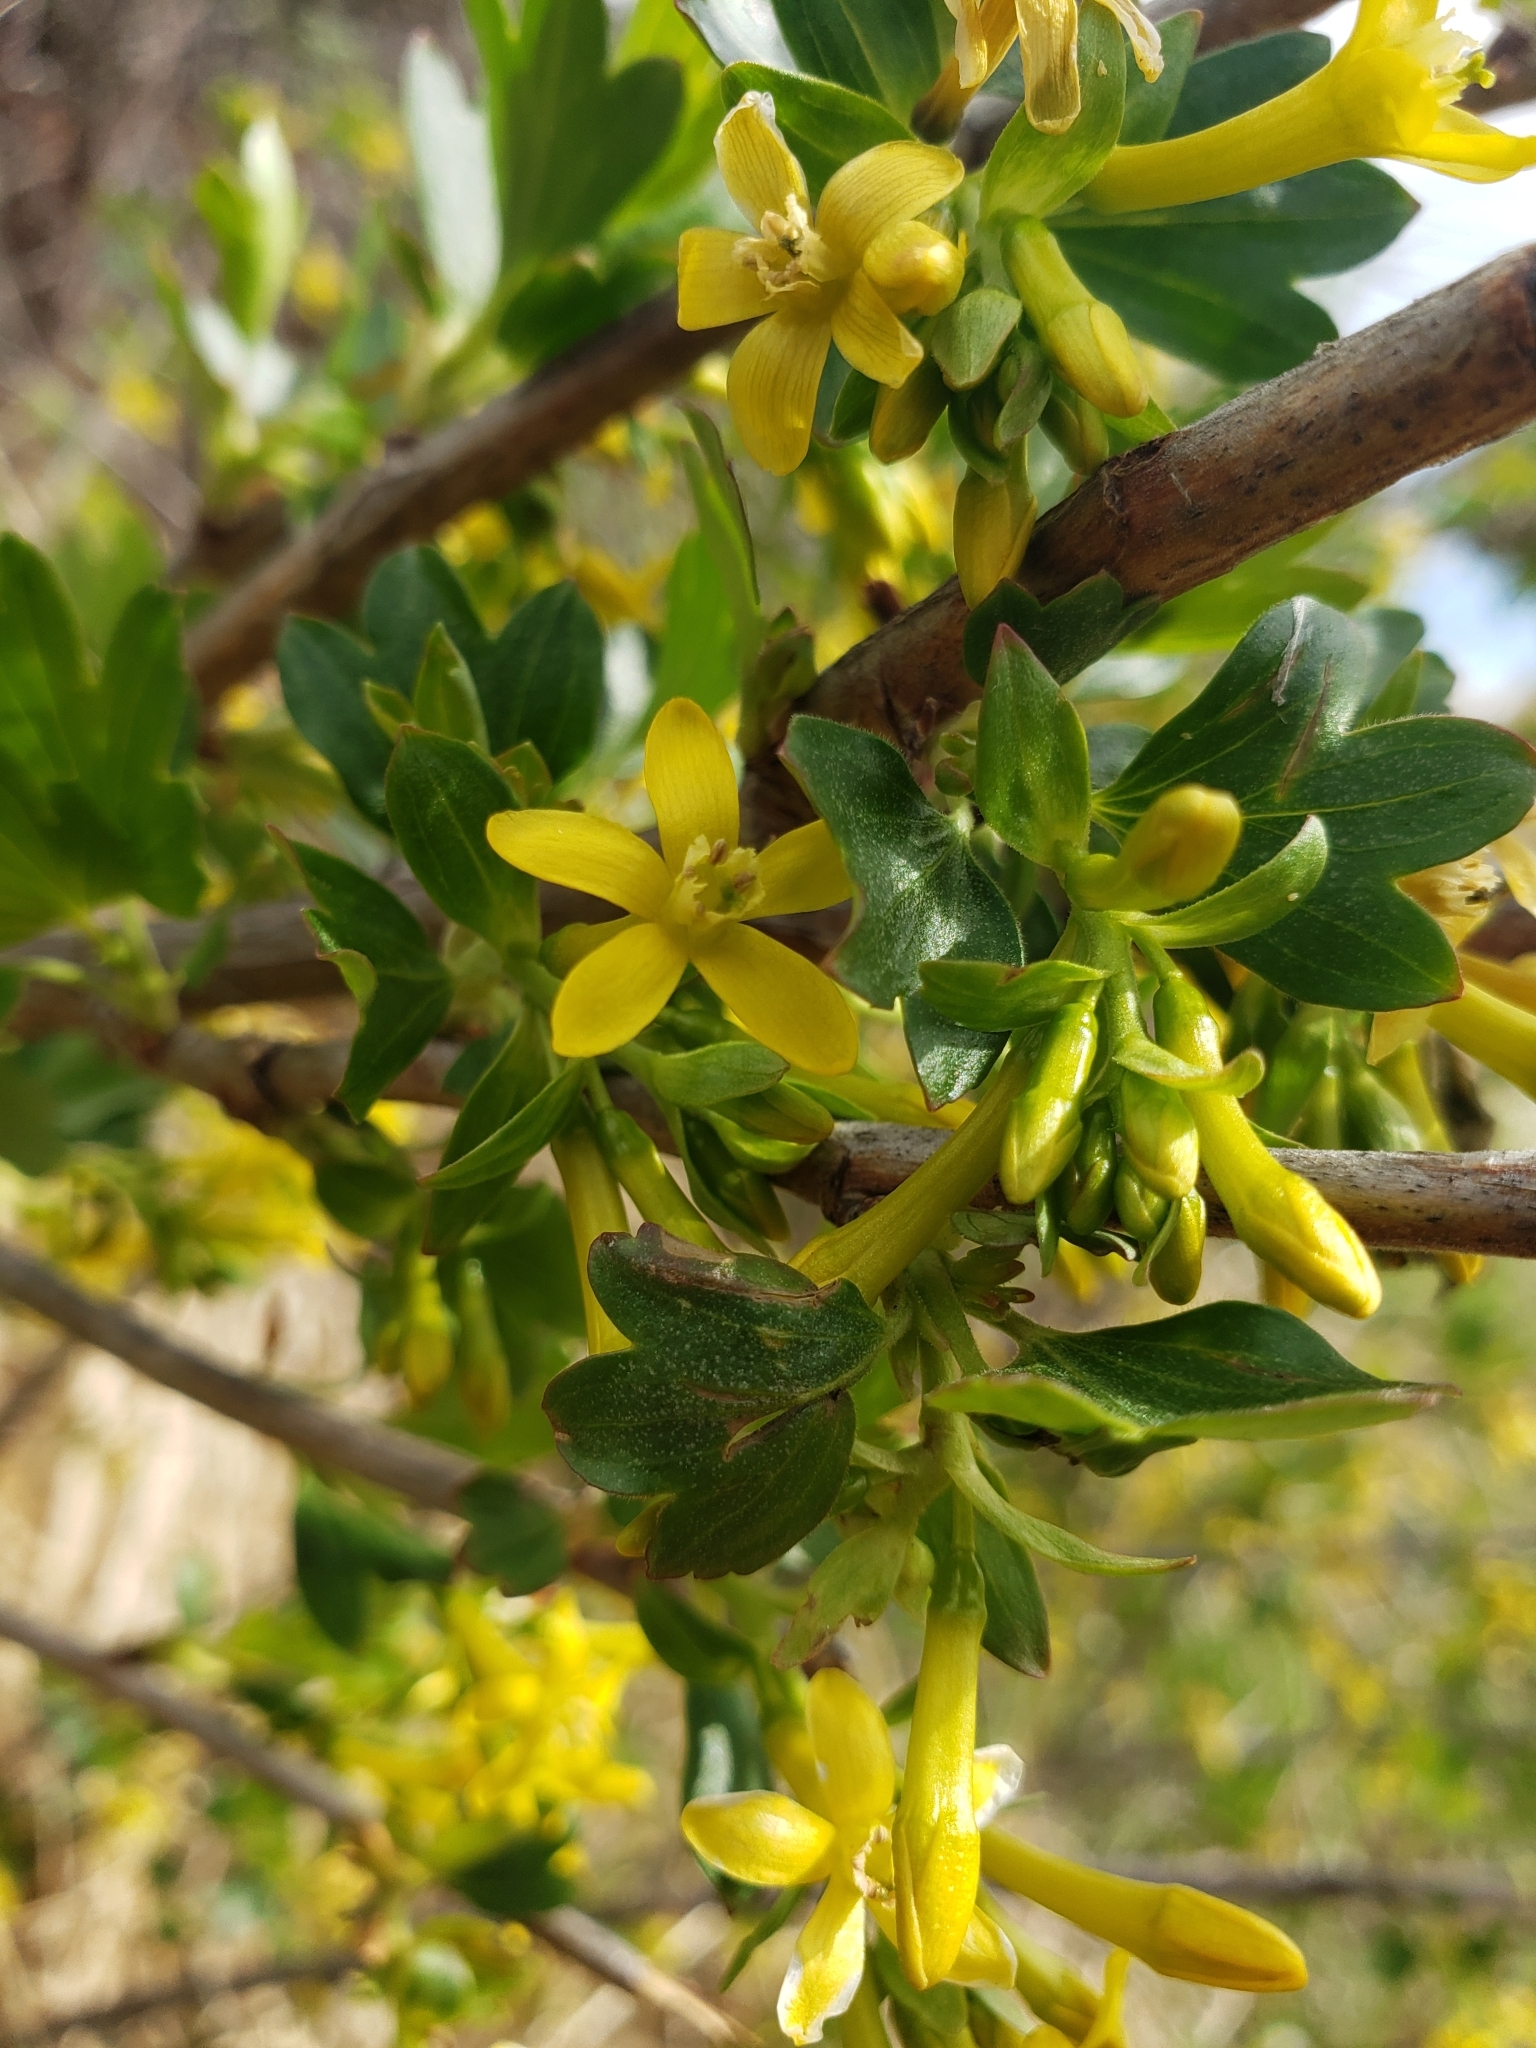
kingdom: Plantae
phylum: Tracheophyta
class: Magnoliopsida
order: Saxifragales
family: Grossulariaceae
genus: Ribes
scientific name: Ribes aureum
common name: Golden currant
